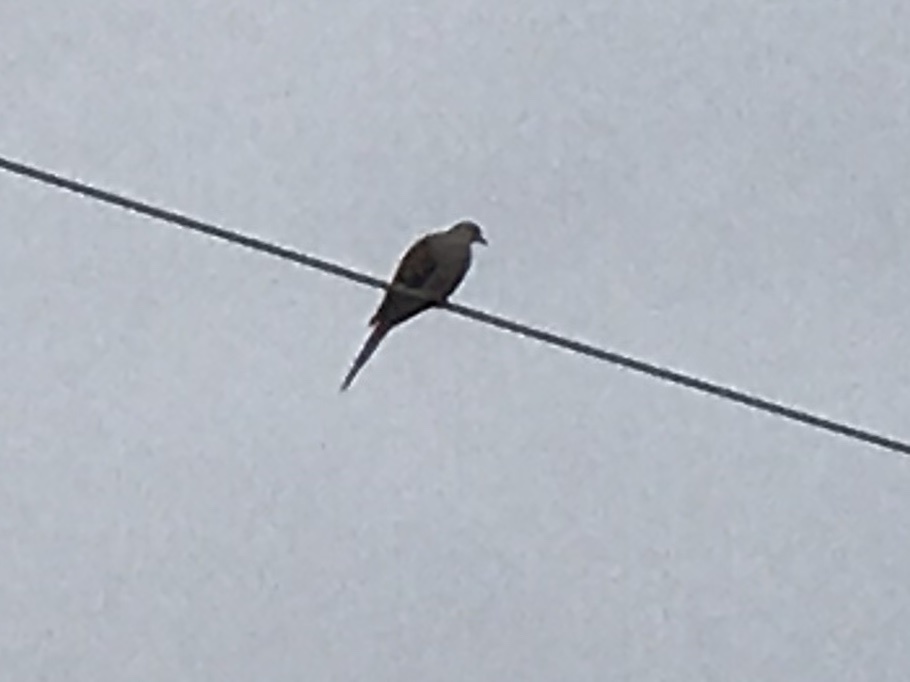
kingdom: Animalia
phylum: Chordata
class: Aves
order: Columbiformes
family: Columbidae
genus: Zenaida
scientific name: Zenaida macroura
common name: Mourning dove
